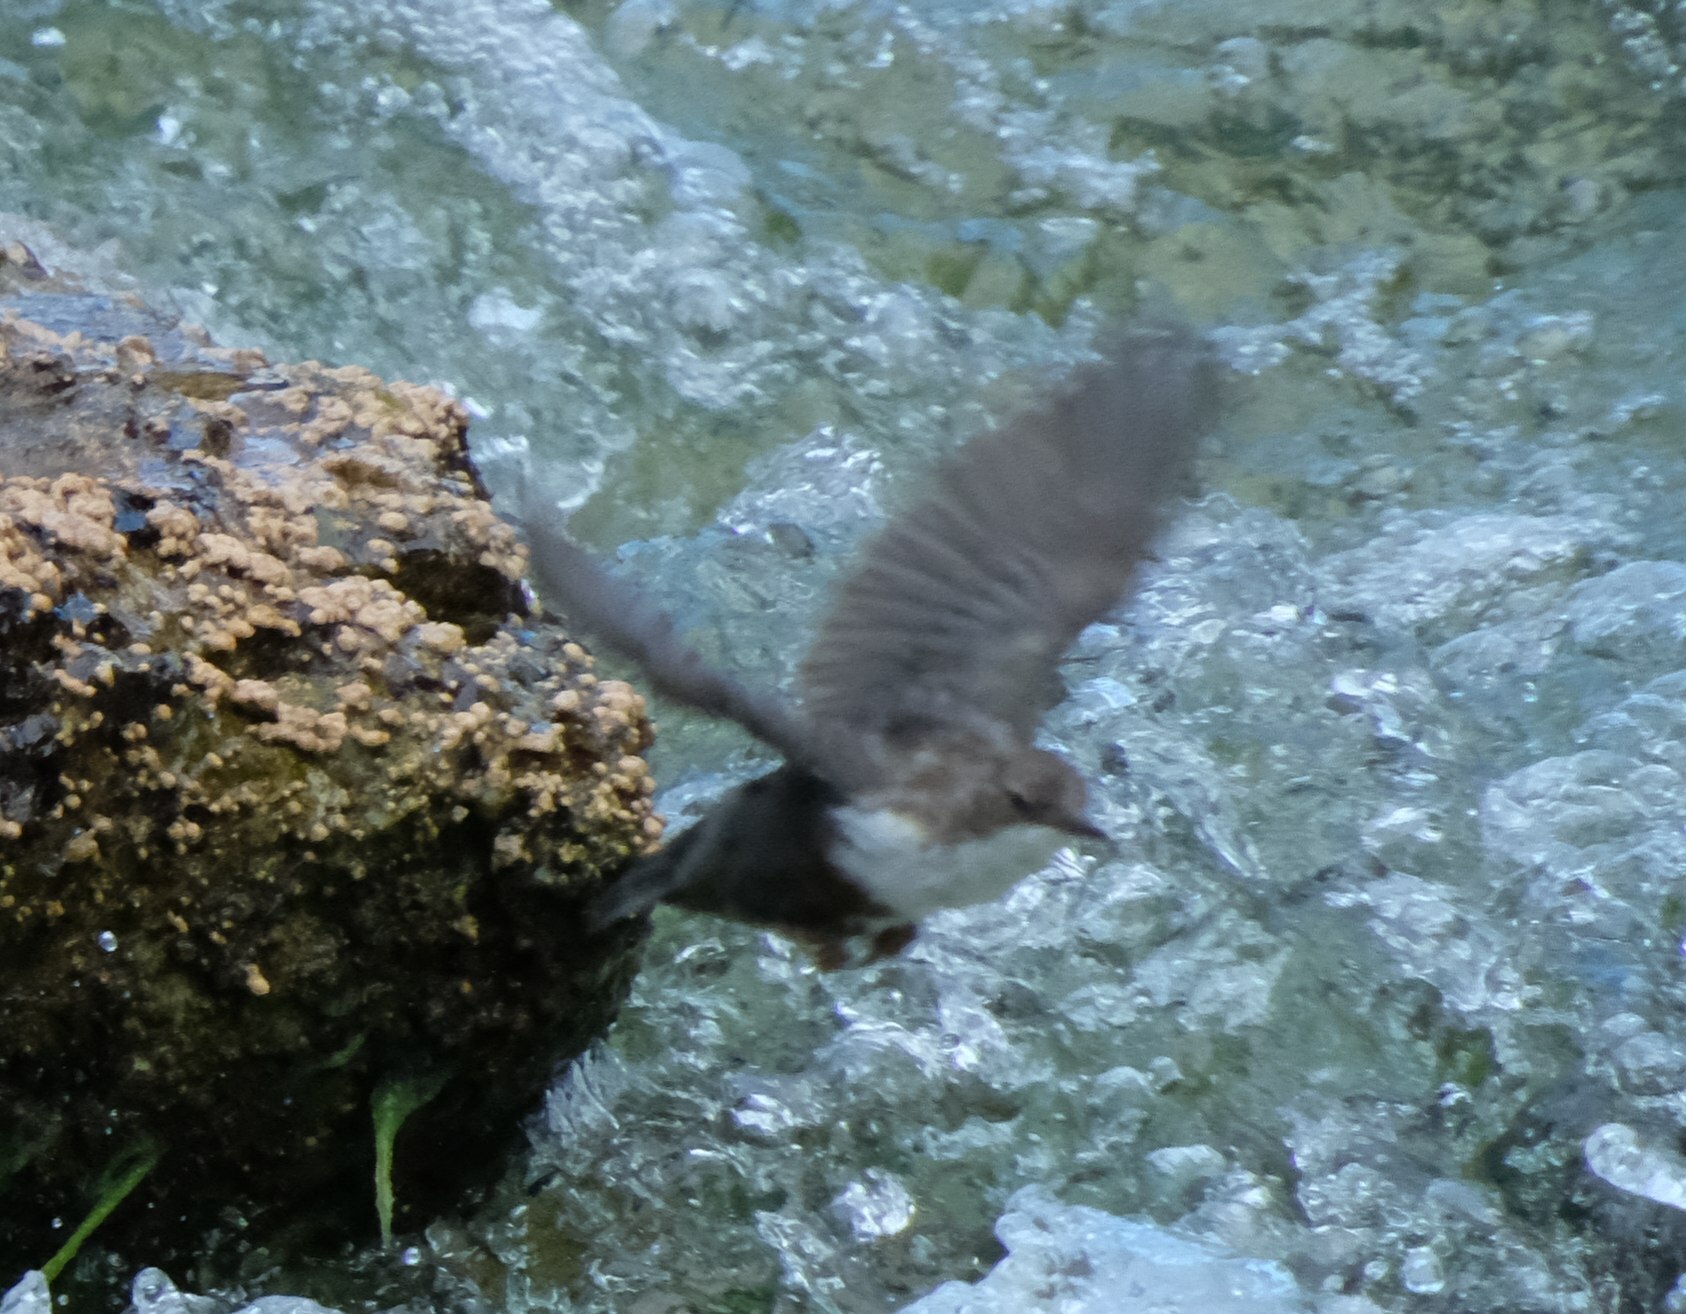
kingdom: Animalia
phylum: Chordata
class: Aves
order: Passeriformes
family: Cinclidae
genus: Cinclus
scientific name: Cinclus cinclus
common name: White-throated dipper
